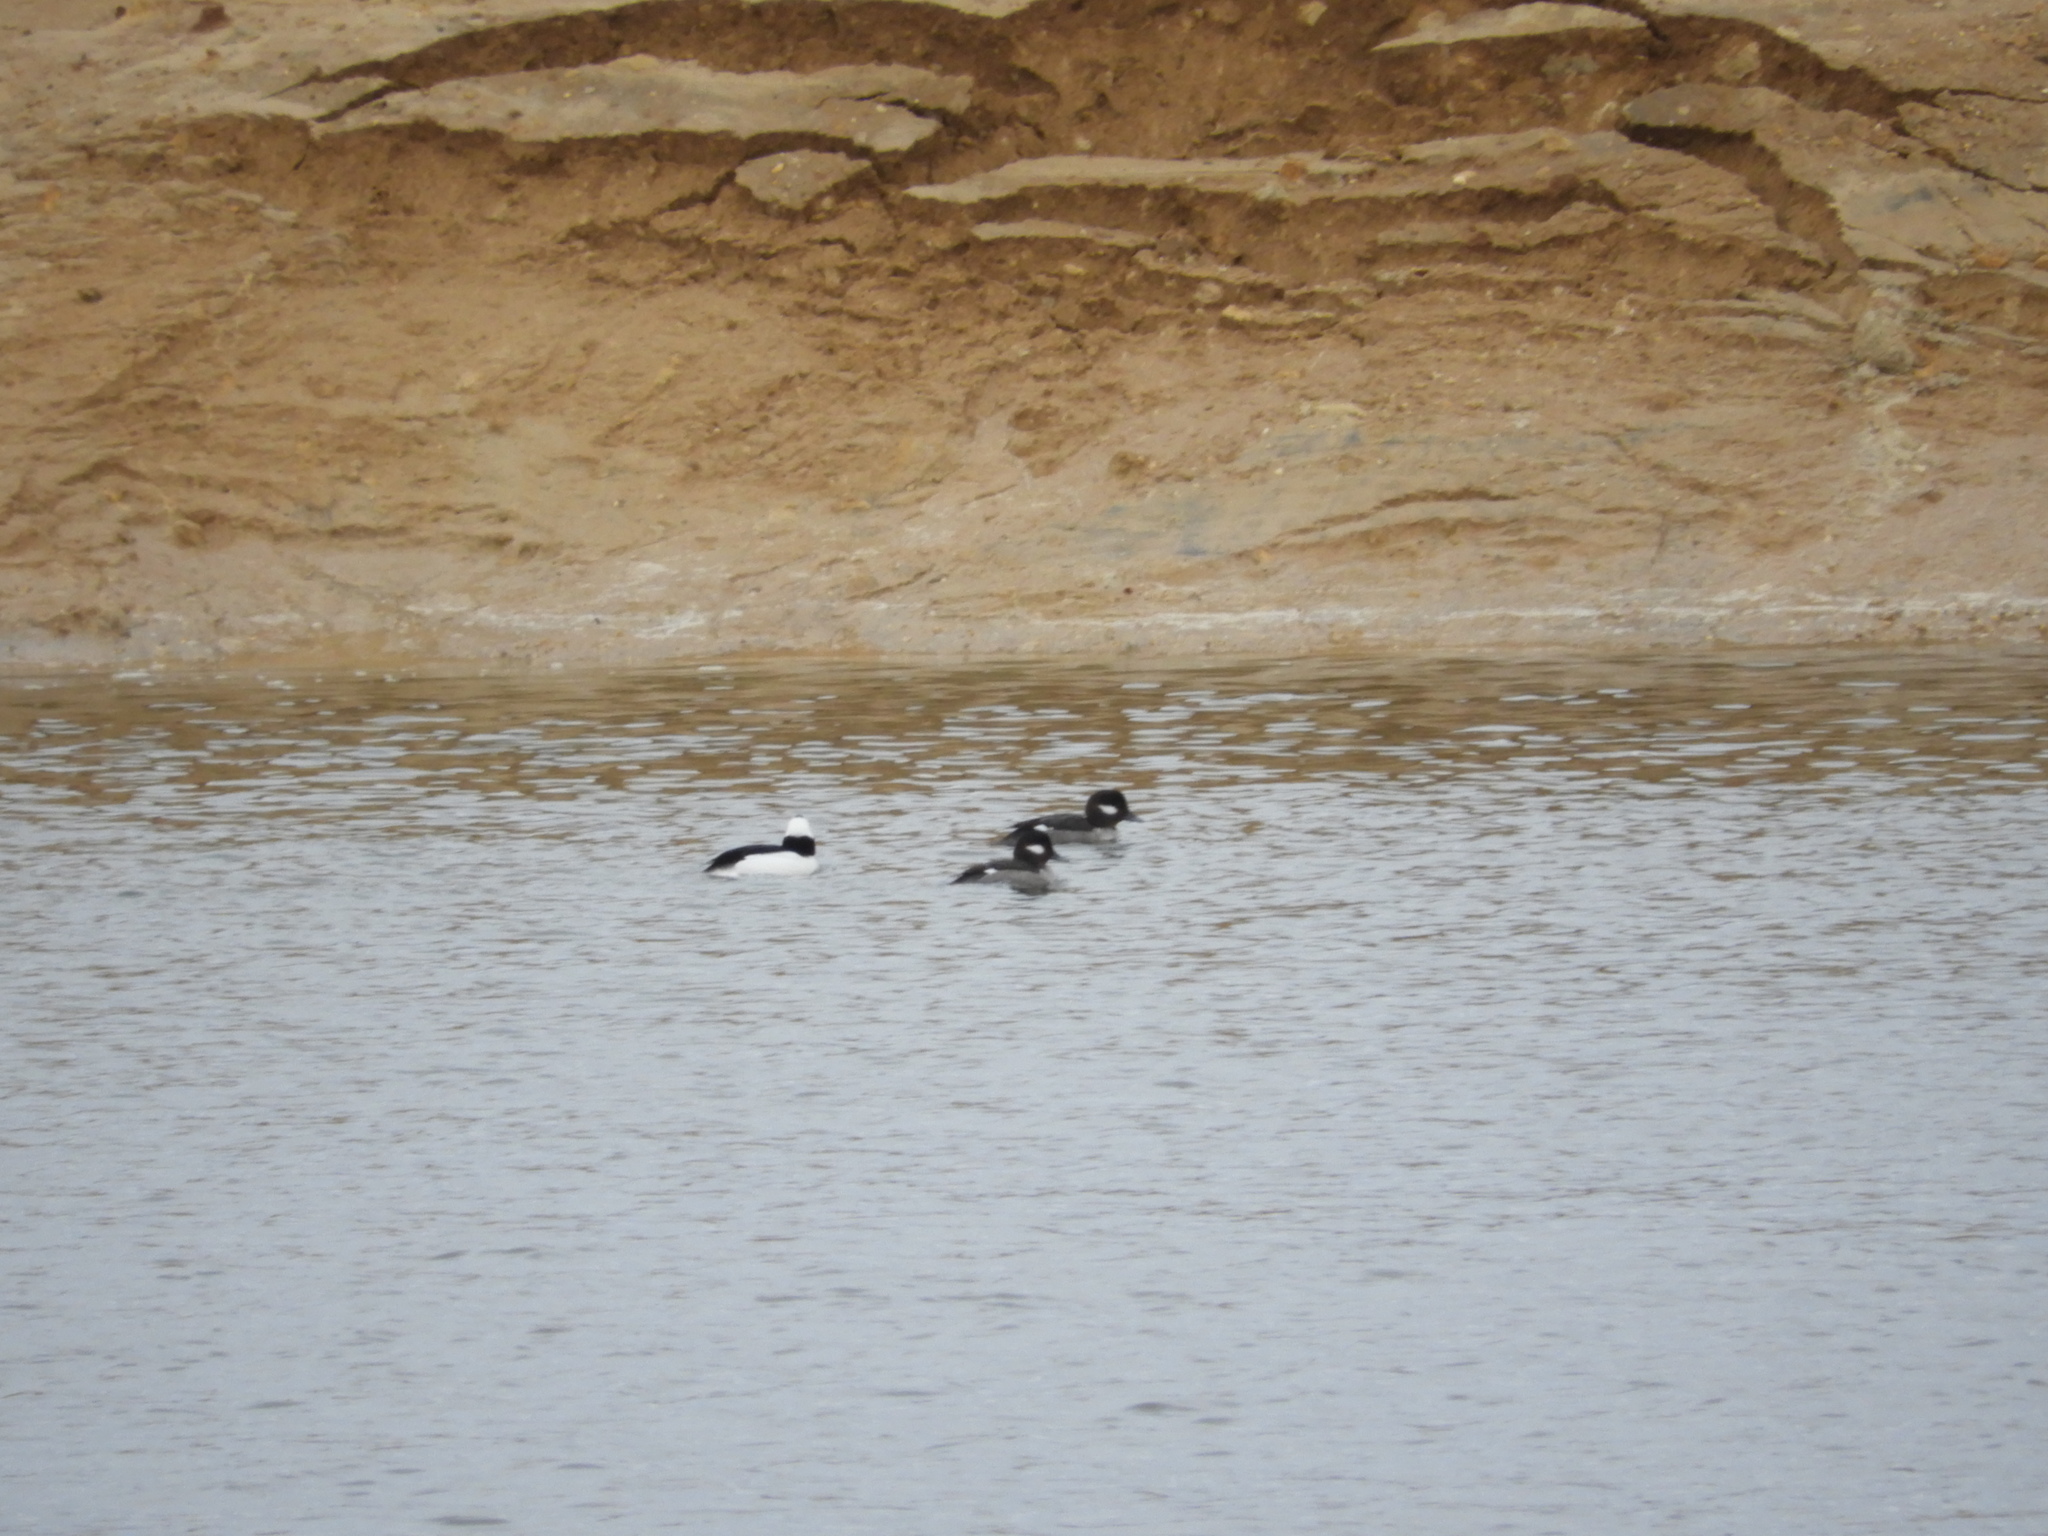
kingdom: Animalia
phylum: Chordata
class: Aves
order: Anseriformes
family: Anatidae
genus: Bucephala
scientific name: Bucephala albeola
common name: Bufflehead
